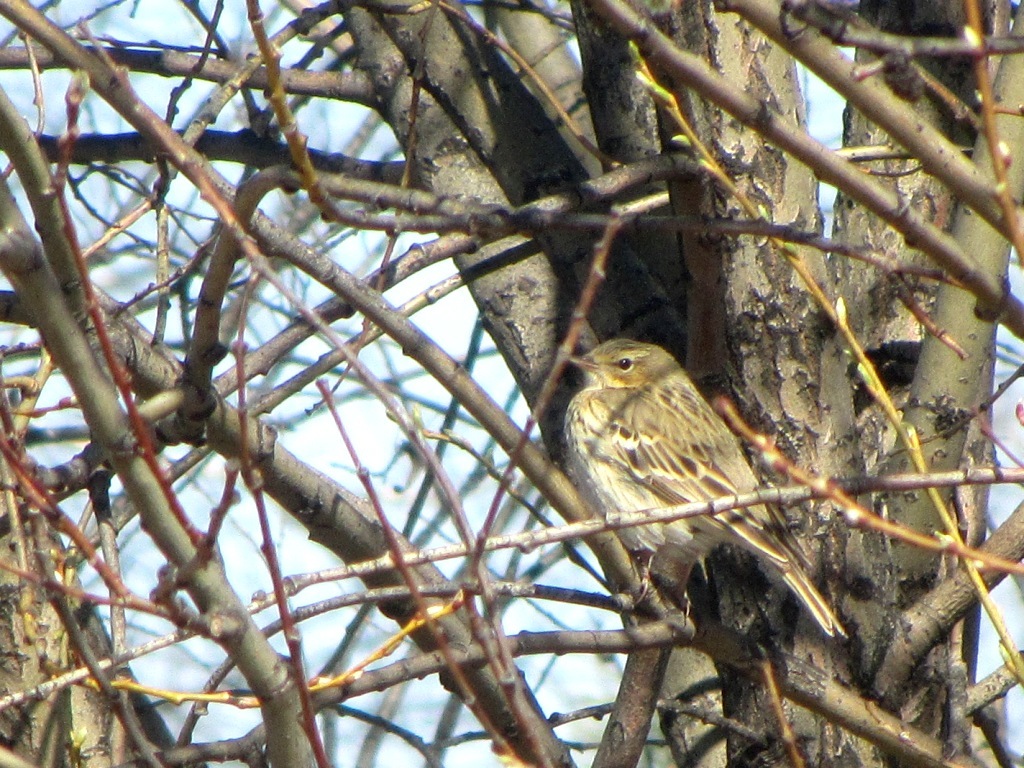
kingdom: Animalia
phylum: Chordata
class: Aves
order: Passeriformes
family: Motacillidae
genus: Anthus
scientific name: Anthus trivialis
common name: Tree pipit
